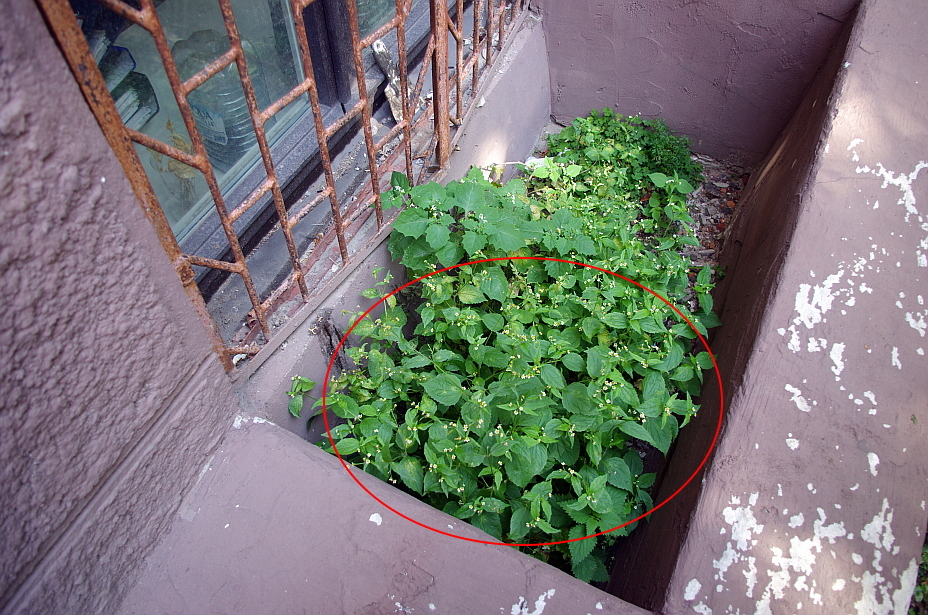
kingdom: Plantae
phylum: Tracheophyta
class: Magnoliopsida
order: Asterales
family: Asteraceae
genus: Galinsoga
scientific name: Galinsoga quadriradiata
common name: Shaggy soldier
